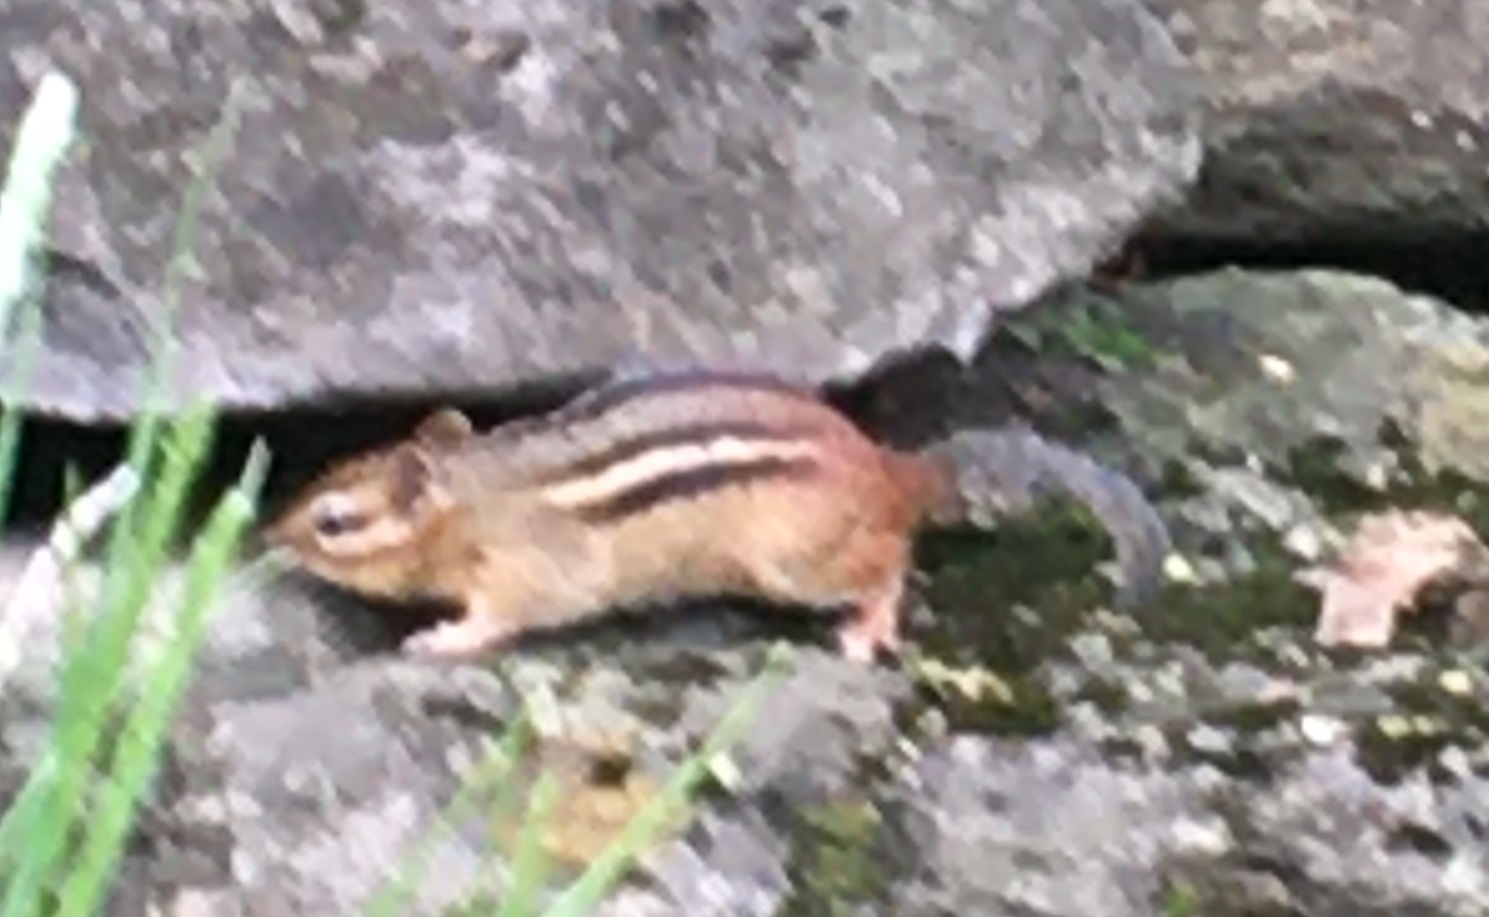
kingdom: Animalia
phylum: Chordata
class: Mammalia
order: Rodentia
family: Sciuridae
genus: Tamias
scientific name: Tamias striatus
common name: Eastern chipmunk
